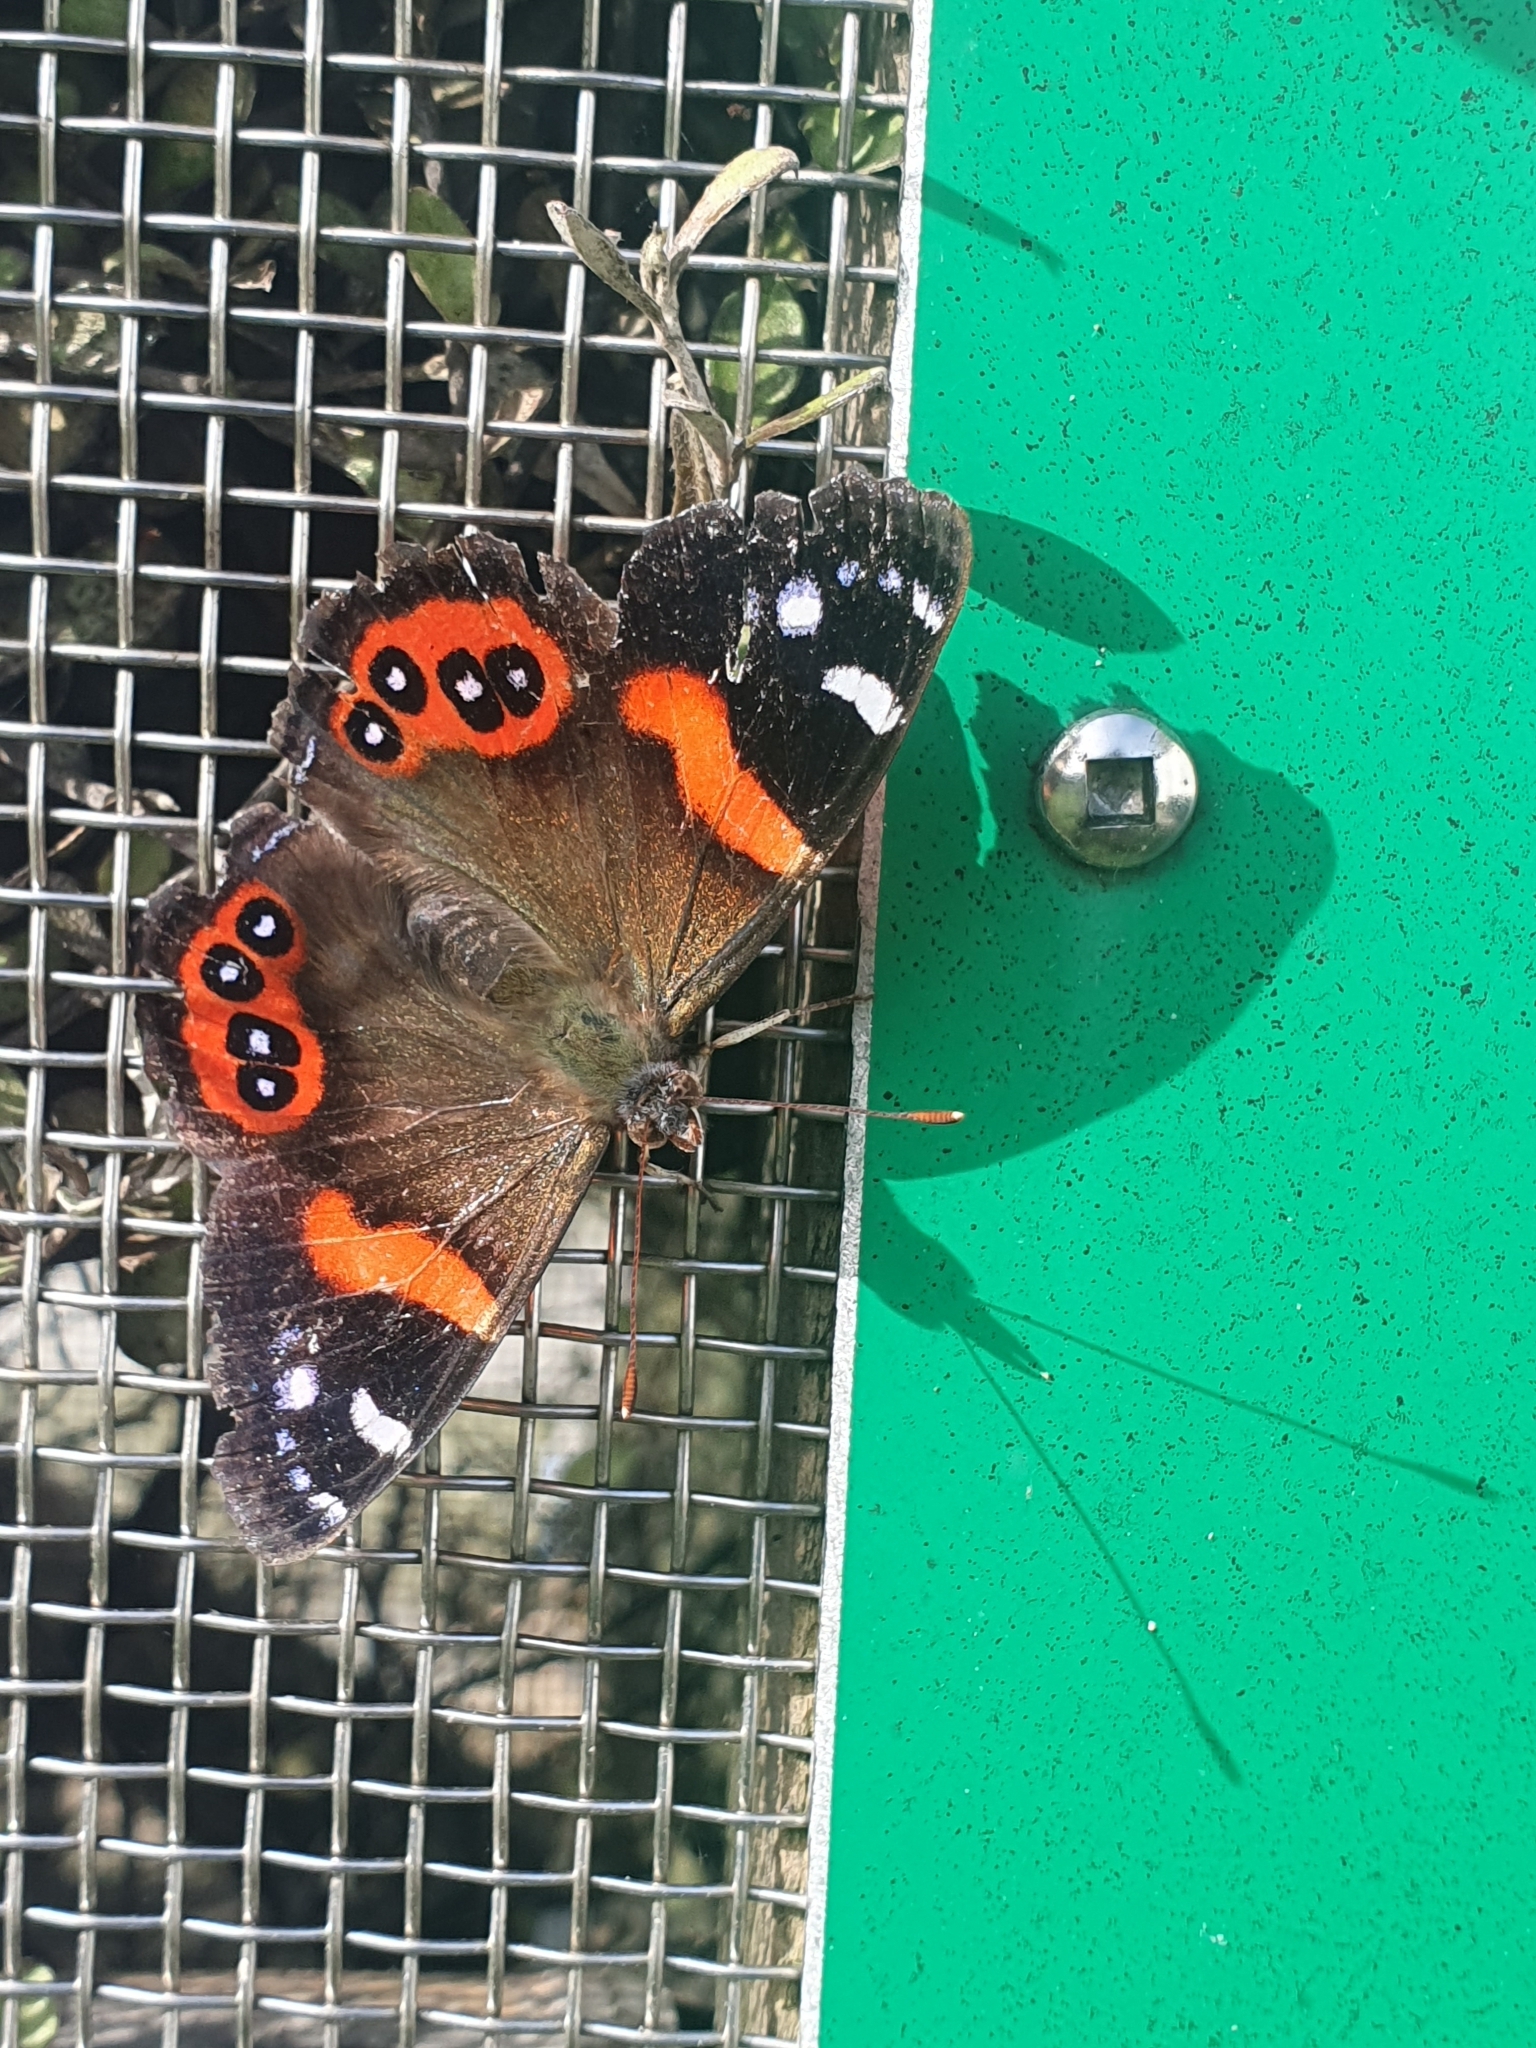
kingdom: Animalia
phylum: Arthropoda
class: Insecta
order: Lepidoptera
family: Nymphalidae
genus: Vanessa
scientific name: Vanessa gonerilla
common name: New zealand red admiral
